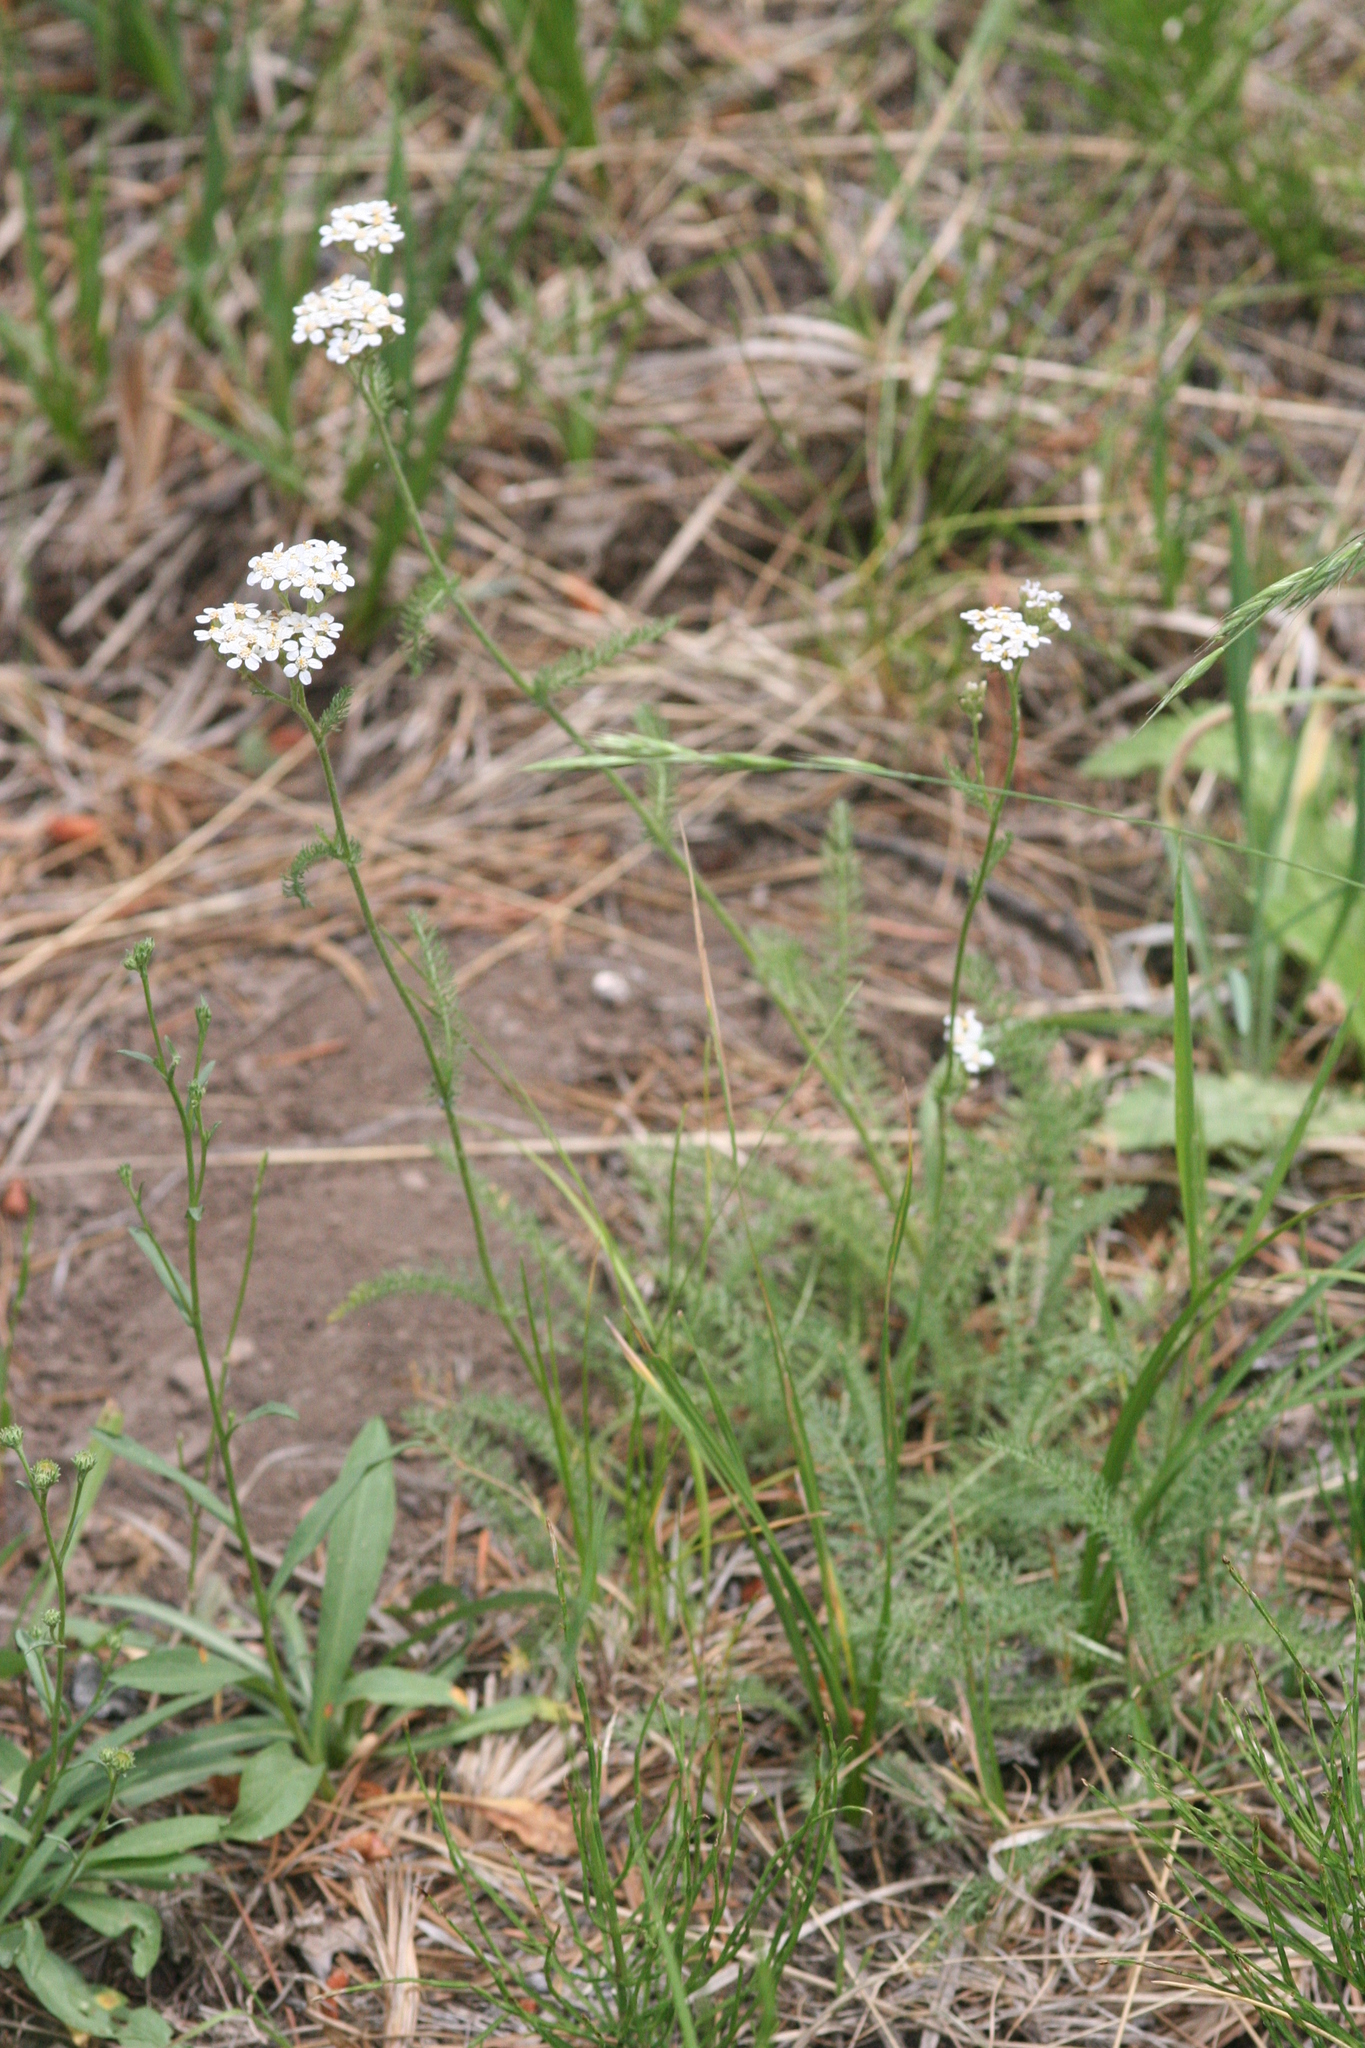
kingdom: Plantae
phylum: Tracheophyta
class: Magnoliopsida
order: Asterales
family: Asteraceae
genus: Achillea
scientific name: Achillea millefolium
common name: Yarrow
